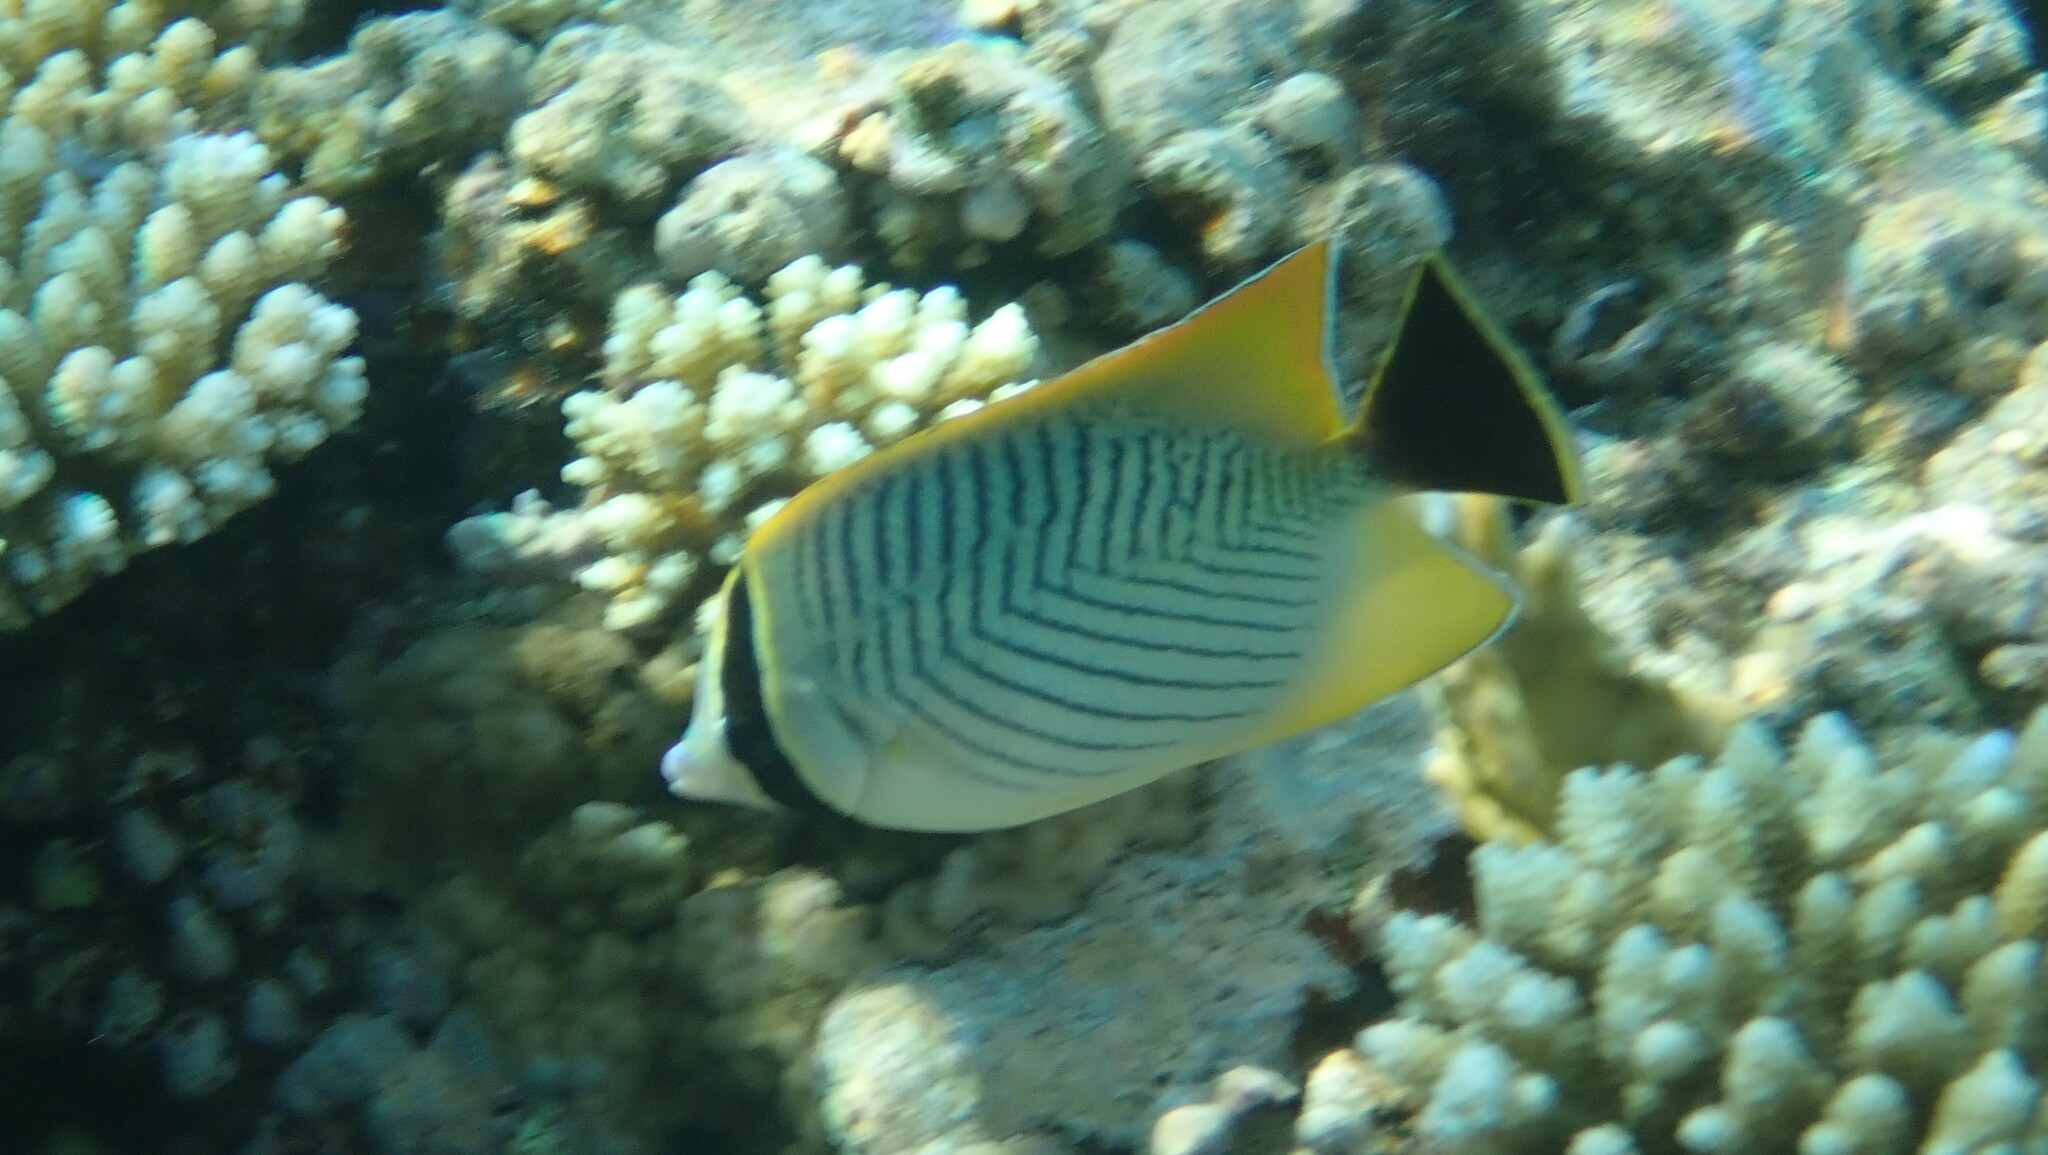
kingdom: Animalia
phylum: Chordata
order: Perciformes
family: Chaetodontidae
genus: Chaetodon
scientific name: Chaetodon trifascialis
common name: Chevroned butterflyfish
